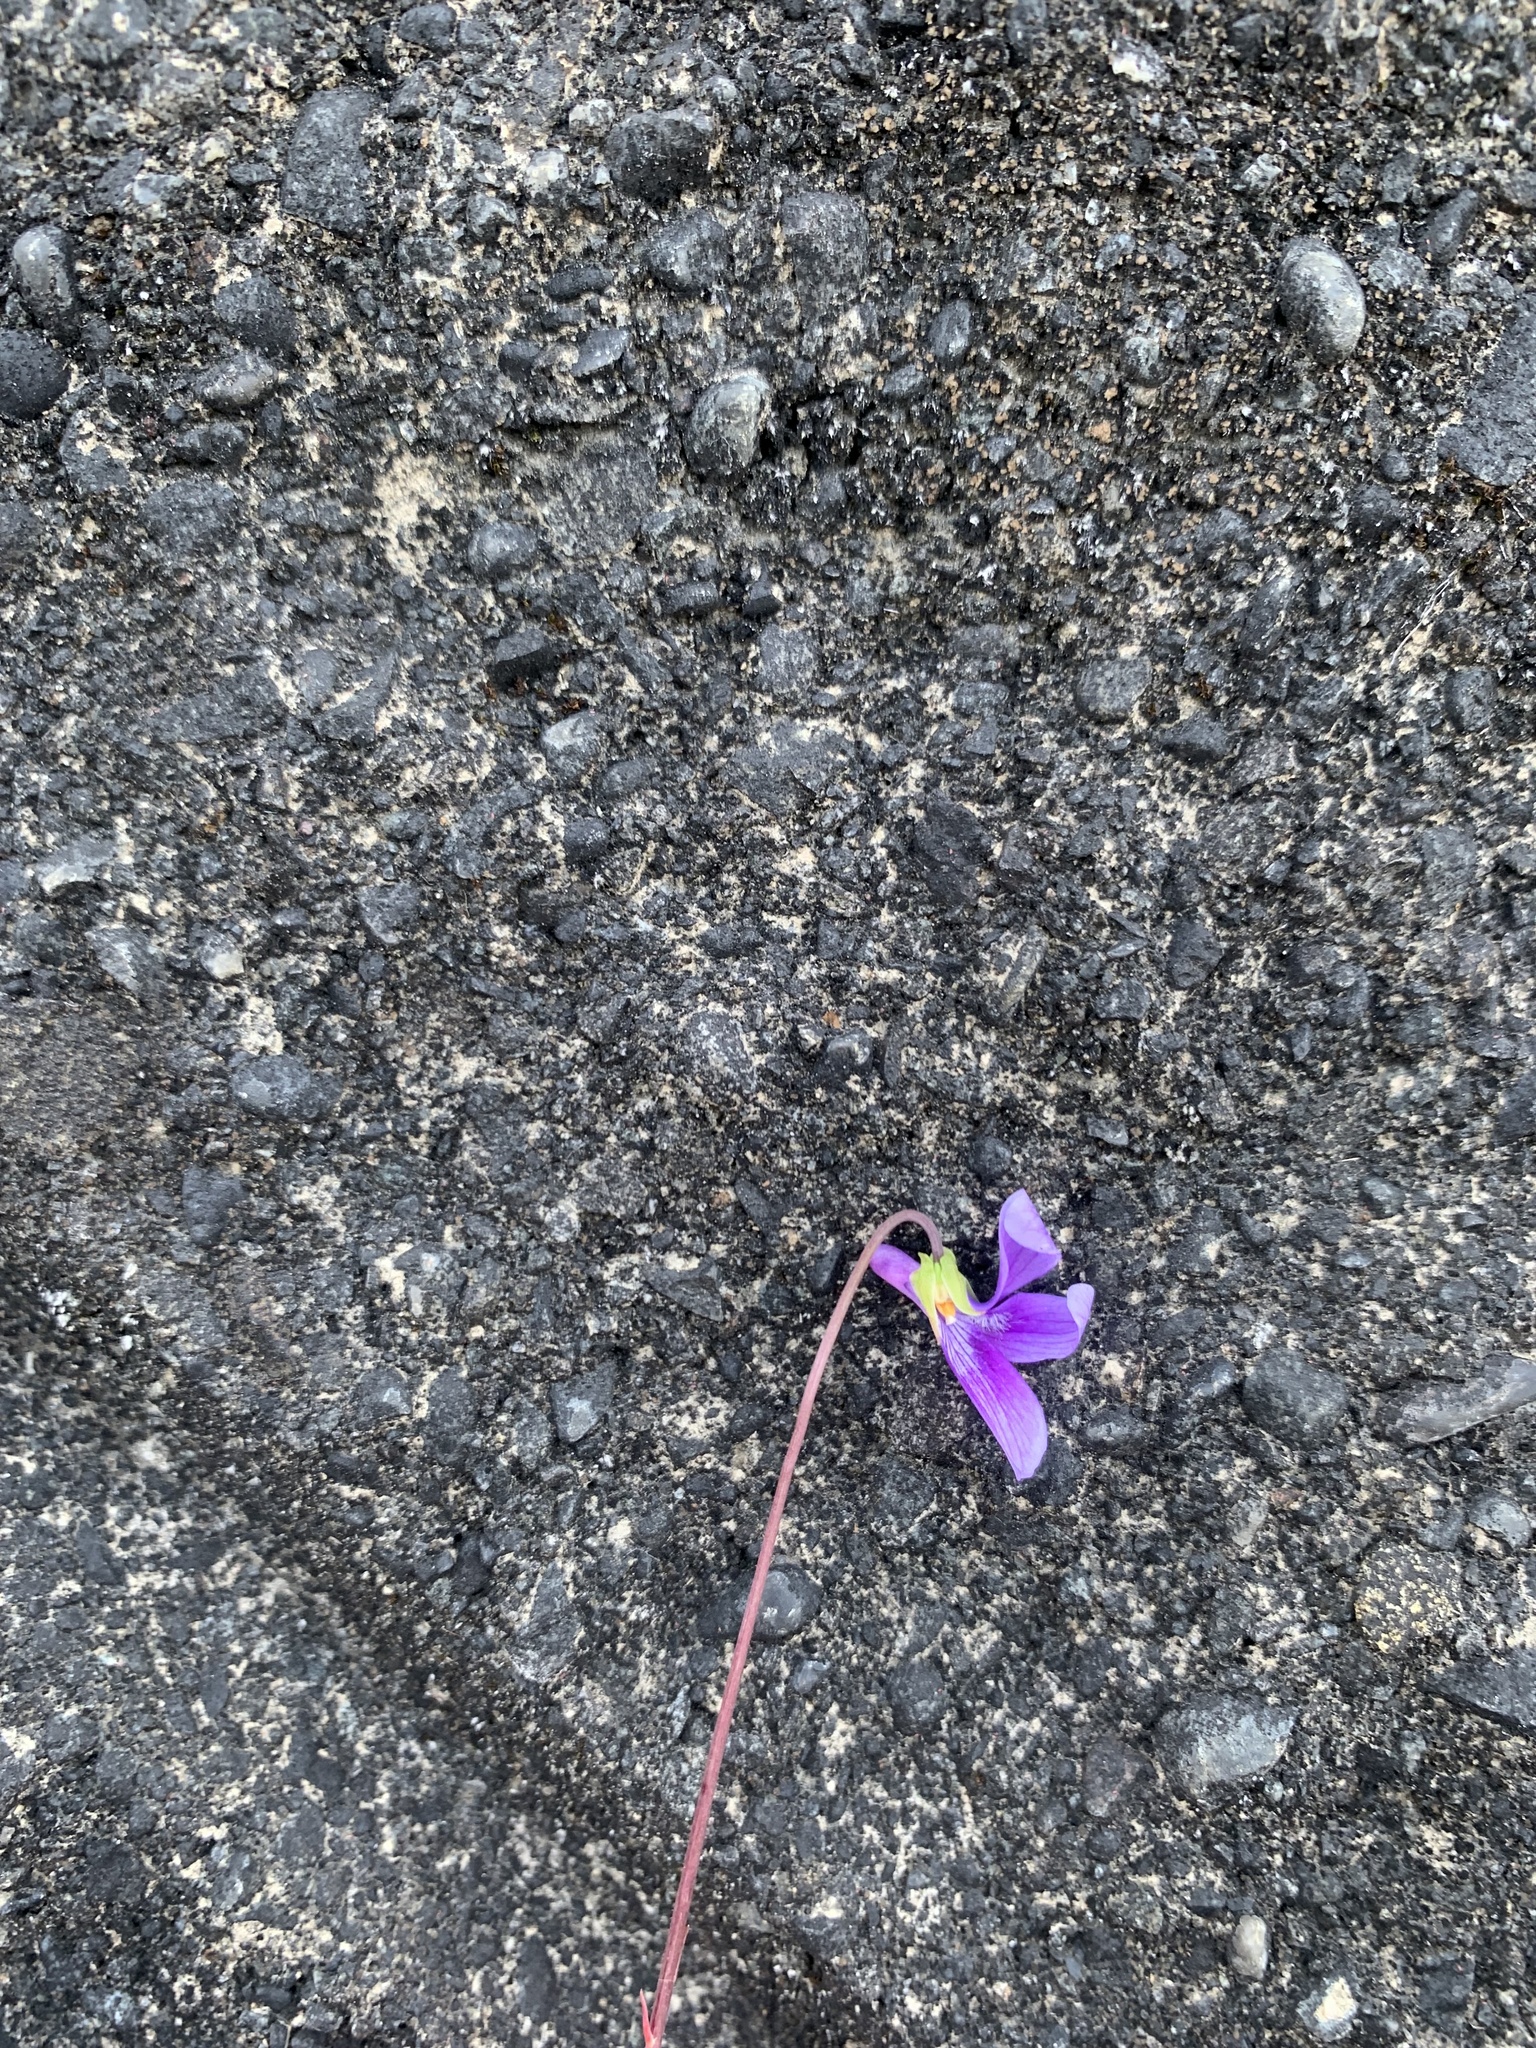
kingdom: Plantae
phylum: Tracheophyta
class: Magnoliopsida
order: Malpighiales
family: Violaceae
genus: Viola
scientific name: Viola mandshurica
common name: Manchuria violet
